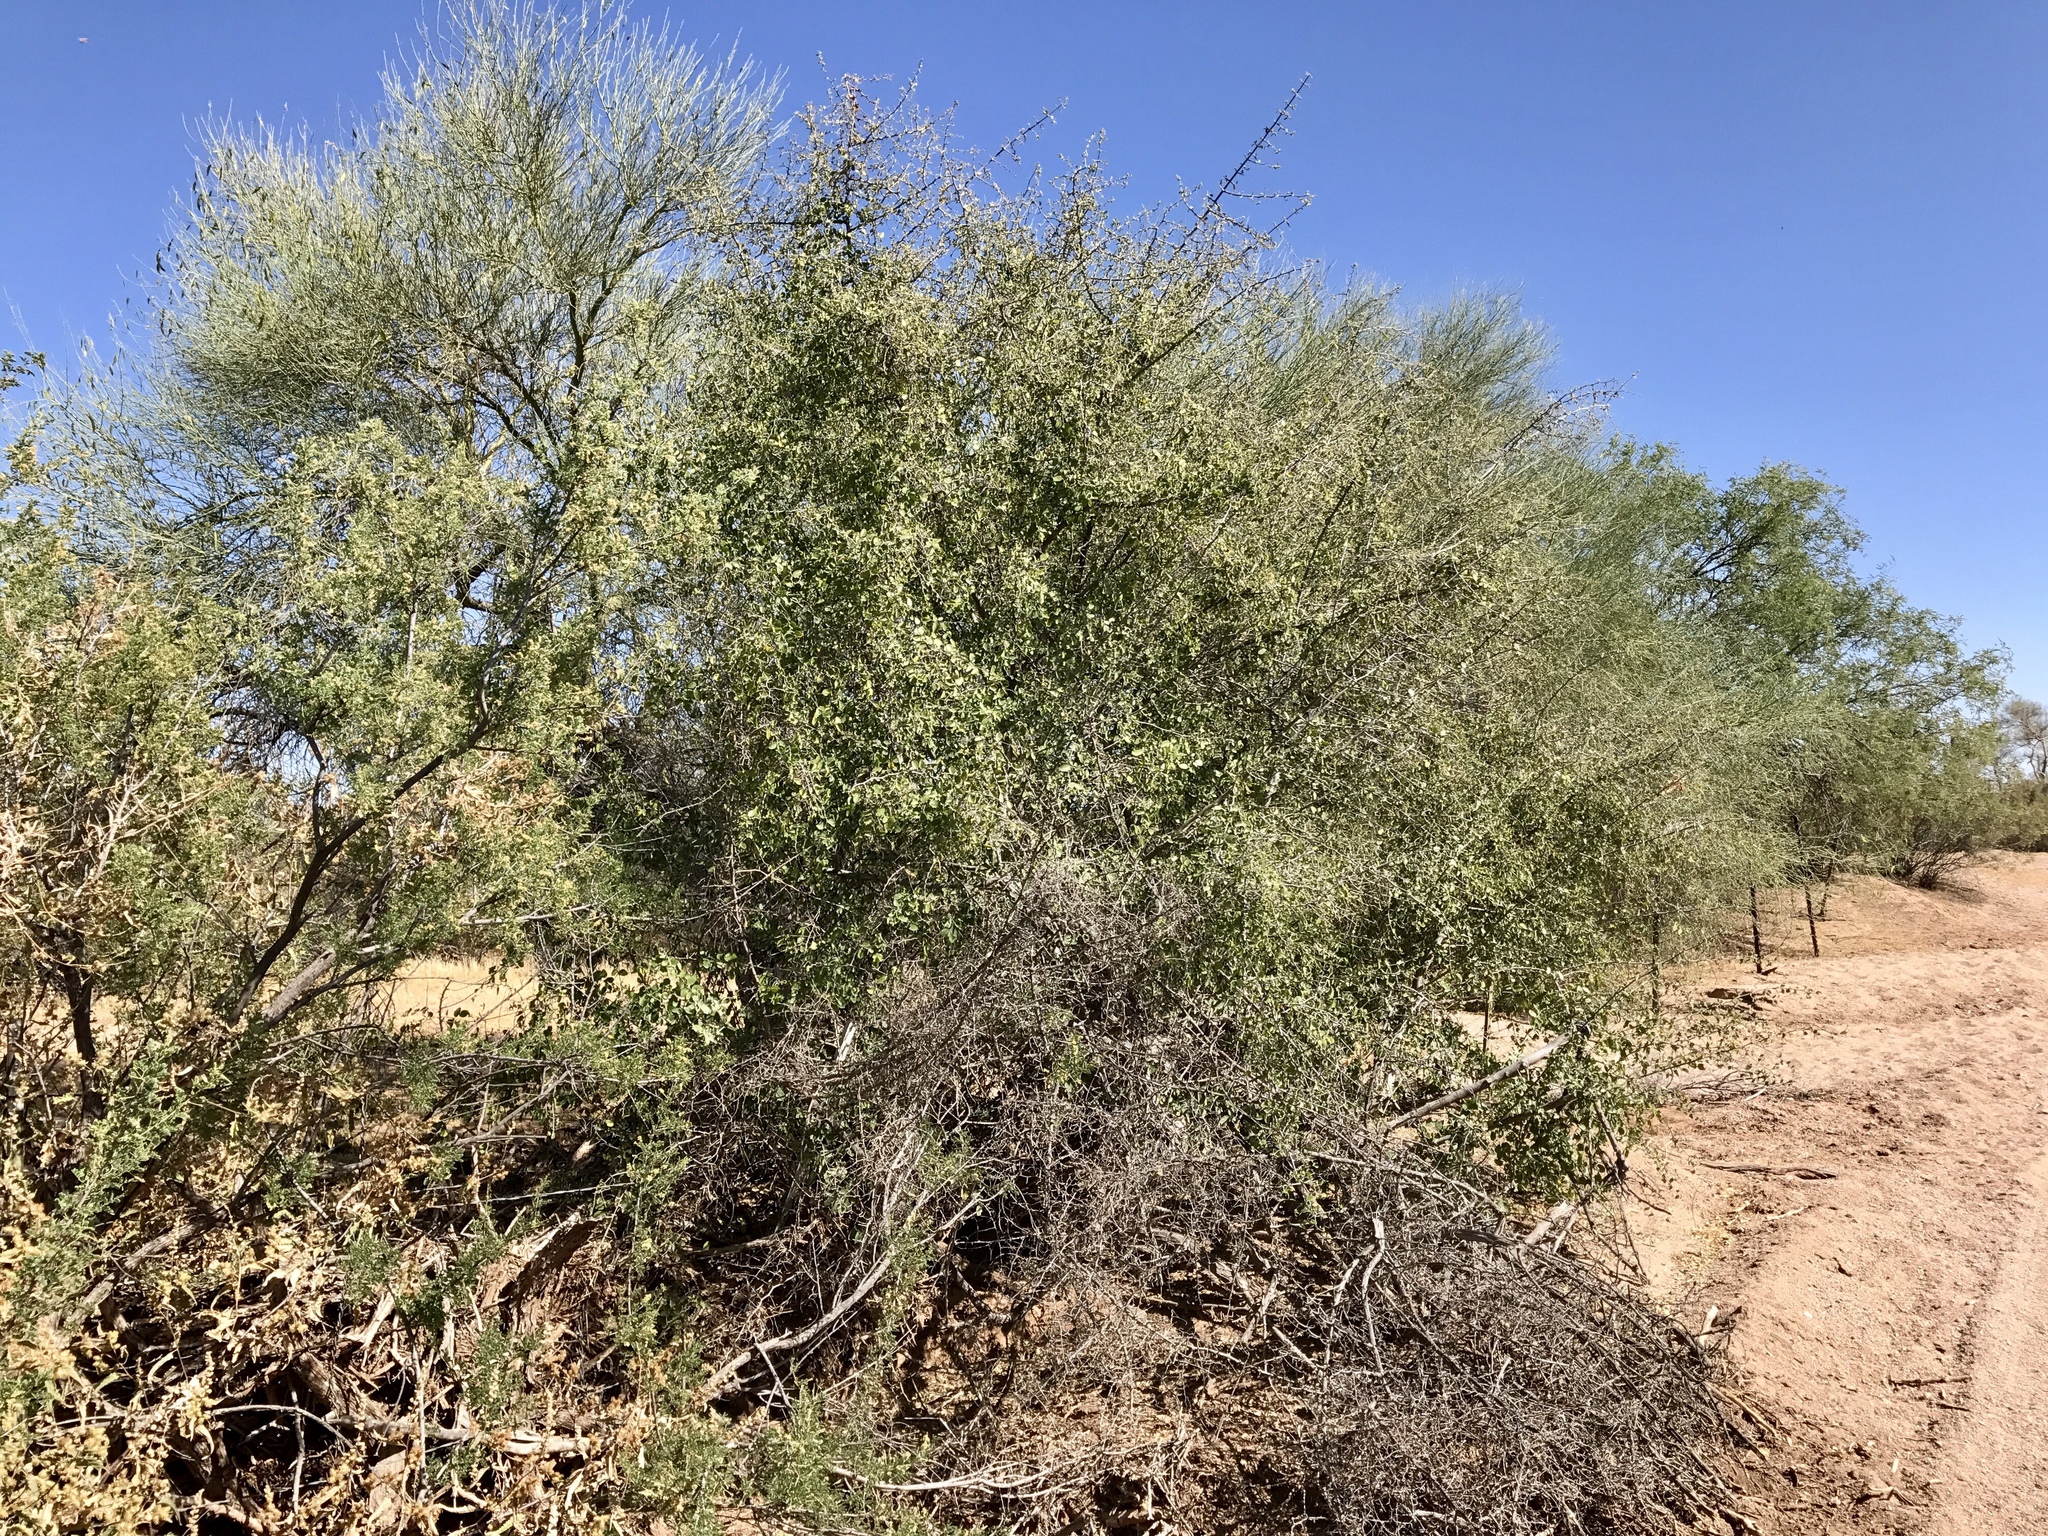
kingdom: Plantae
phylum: Tracheophyta
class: Magnoliopsida
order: Rosales
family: Cannabaceae
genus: Celtis
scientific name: Celtis pallida
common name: Desert hackberry
